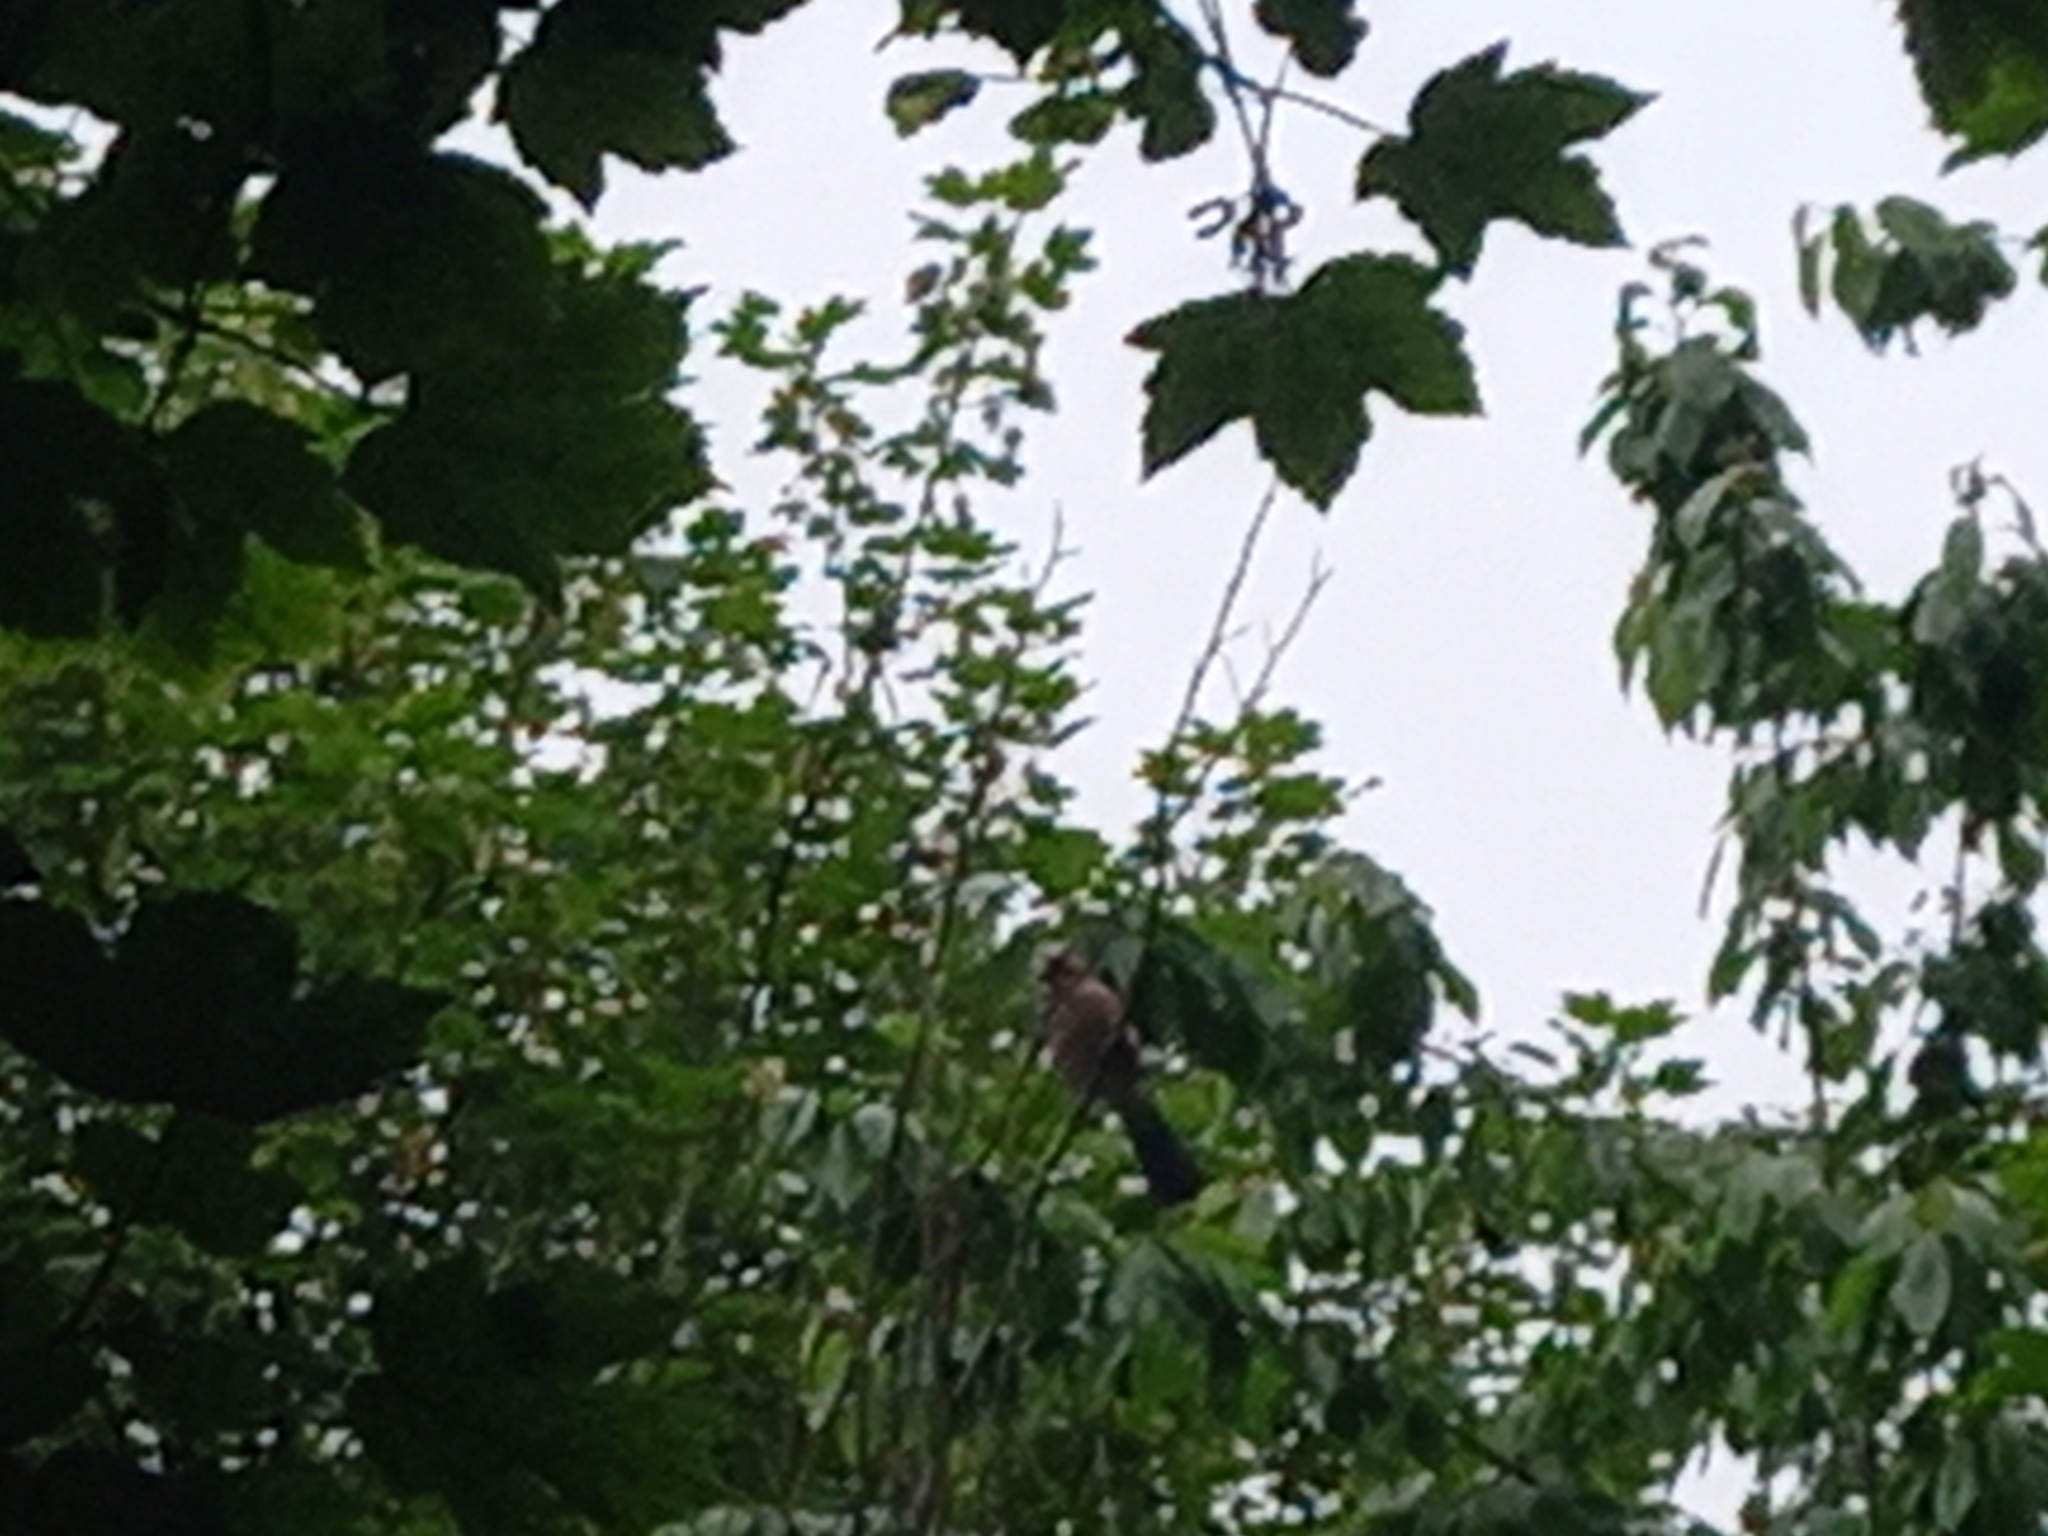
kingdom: Animalia
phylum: Chordata
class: Aves
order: Passeriformes
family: Corvidae
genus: Garrulus
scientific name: Garrulus glandarius
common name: Eurasian jay
